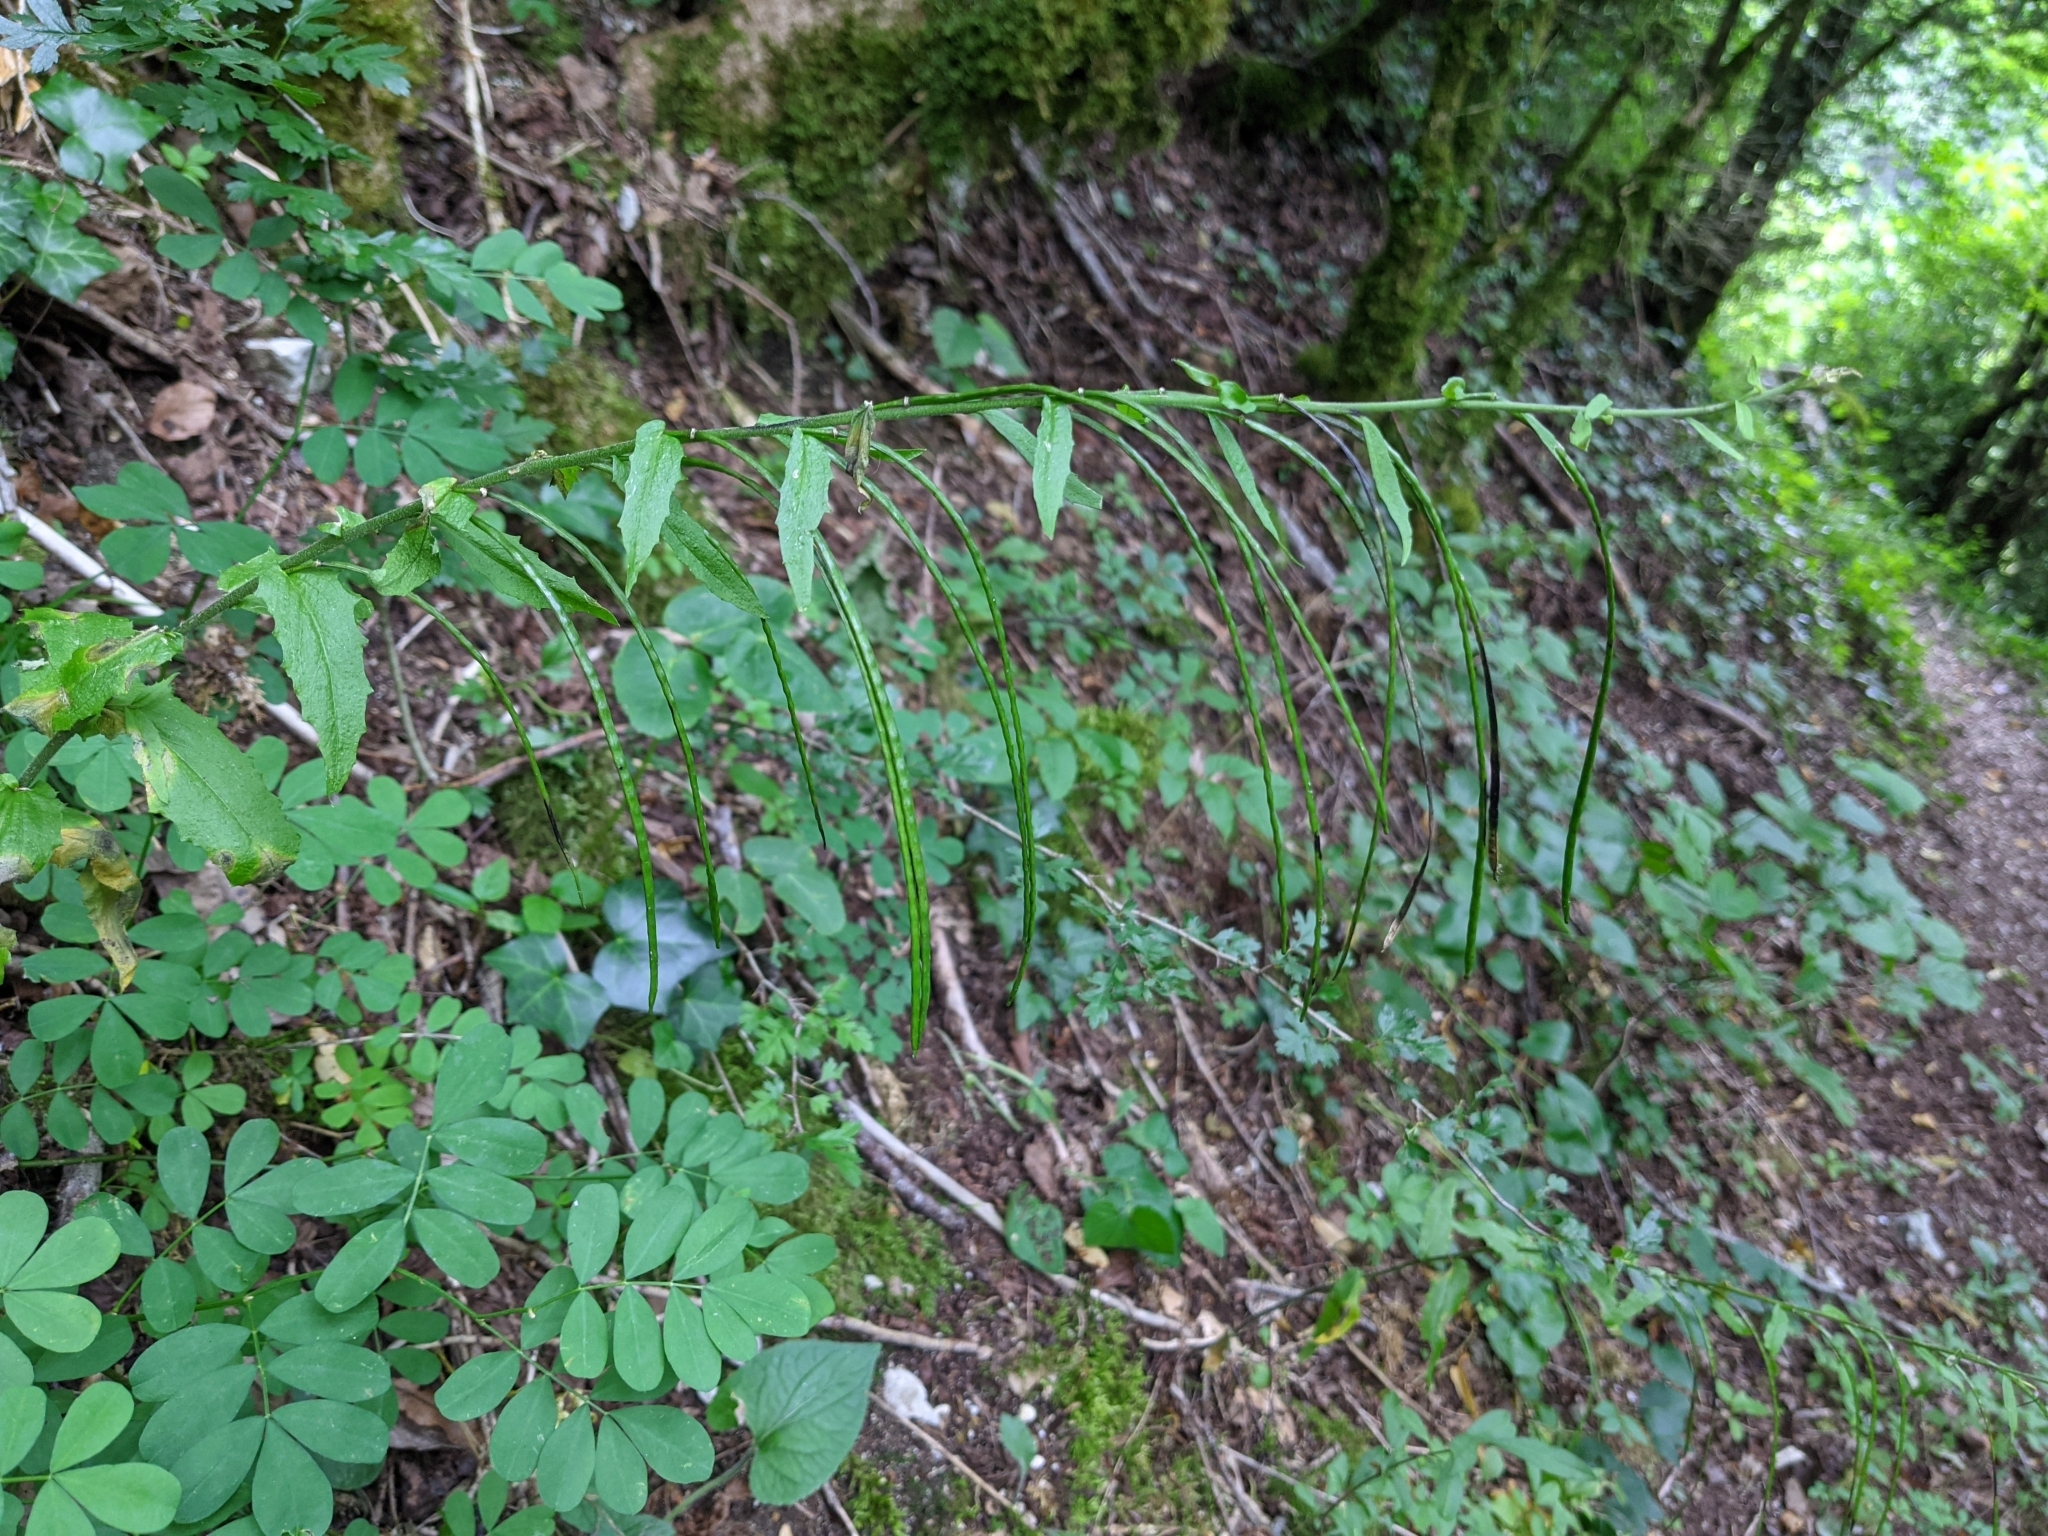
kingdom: Plantae
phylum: Tracheophyta
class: Magnoliopsida
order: Brassicales
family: Brassicaceae
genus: Pseudoturritis
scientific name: Pseudoturritis turrita
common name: Tower cress
